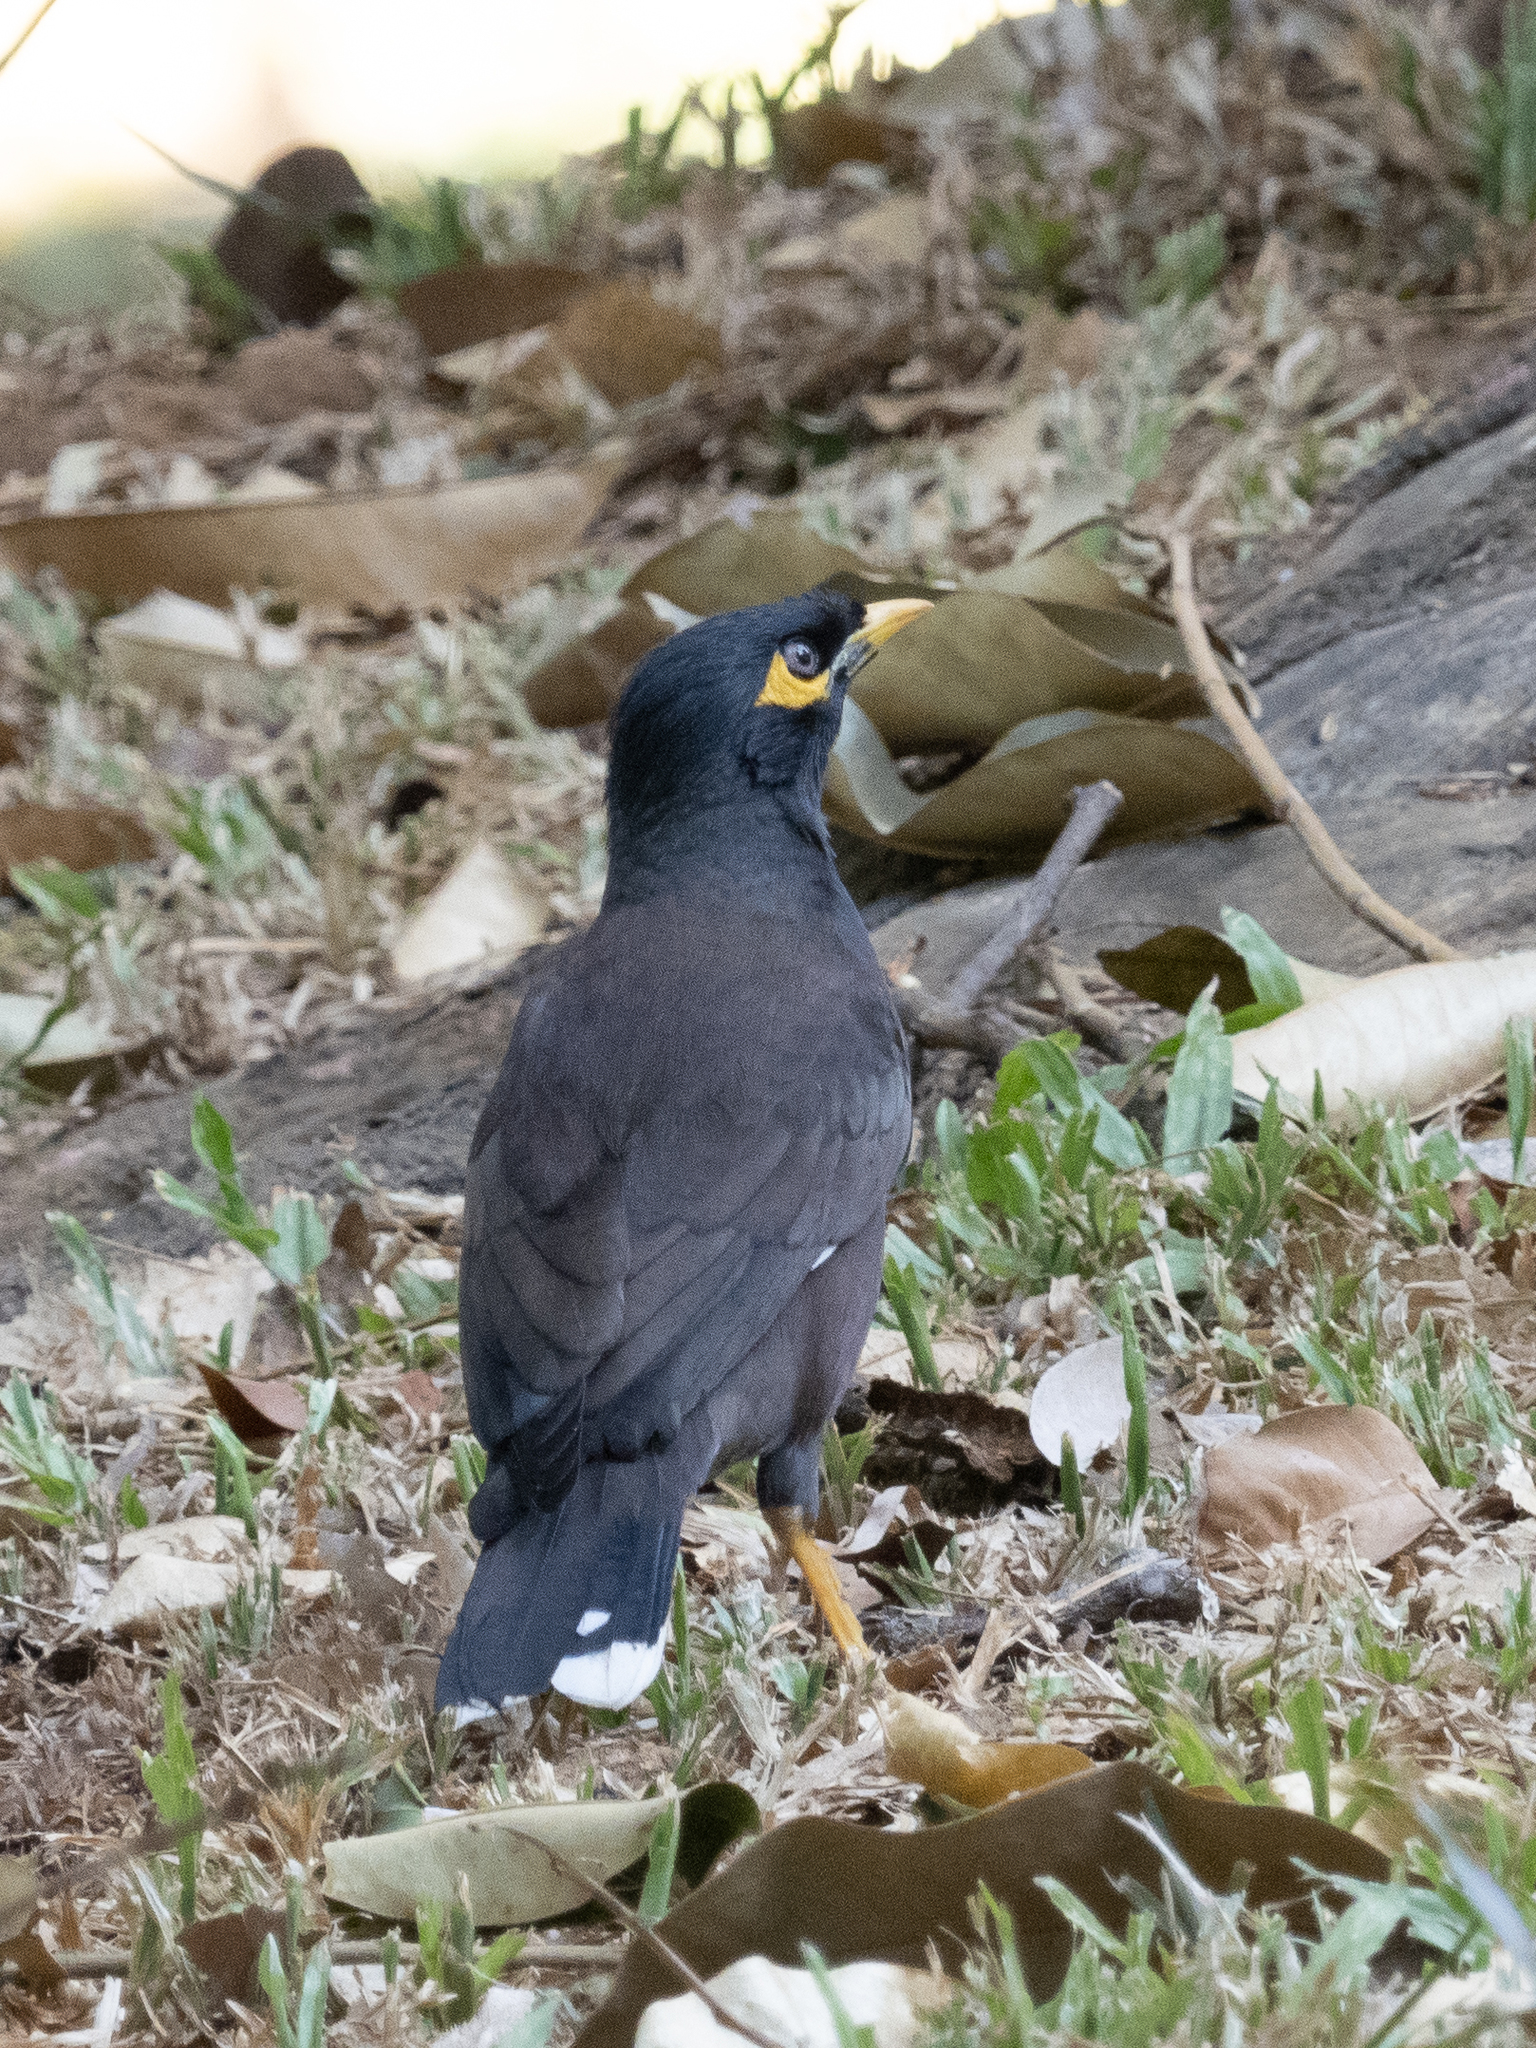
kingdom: Animalia
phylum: Chordata
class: Aves
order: Passeriformes
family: Sturnidae
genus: Acridotheres
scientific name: Acridotheres tristis
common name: Common myna
